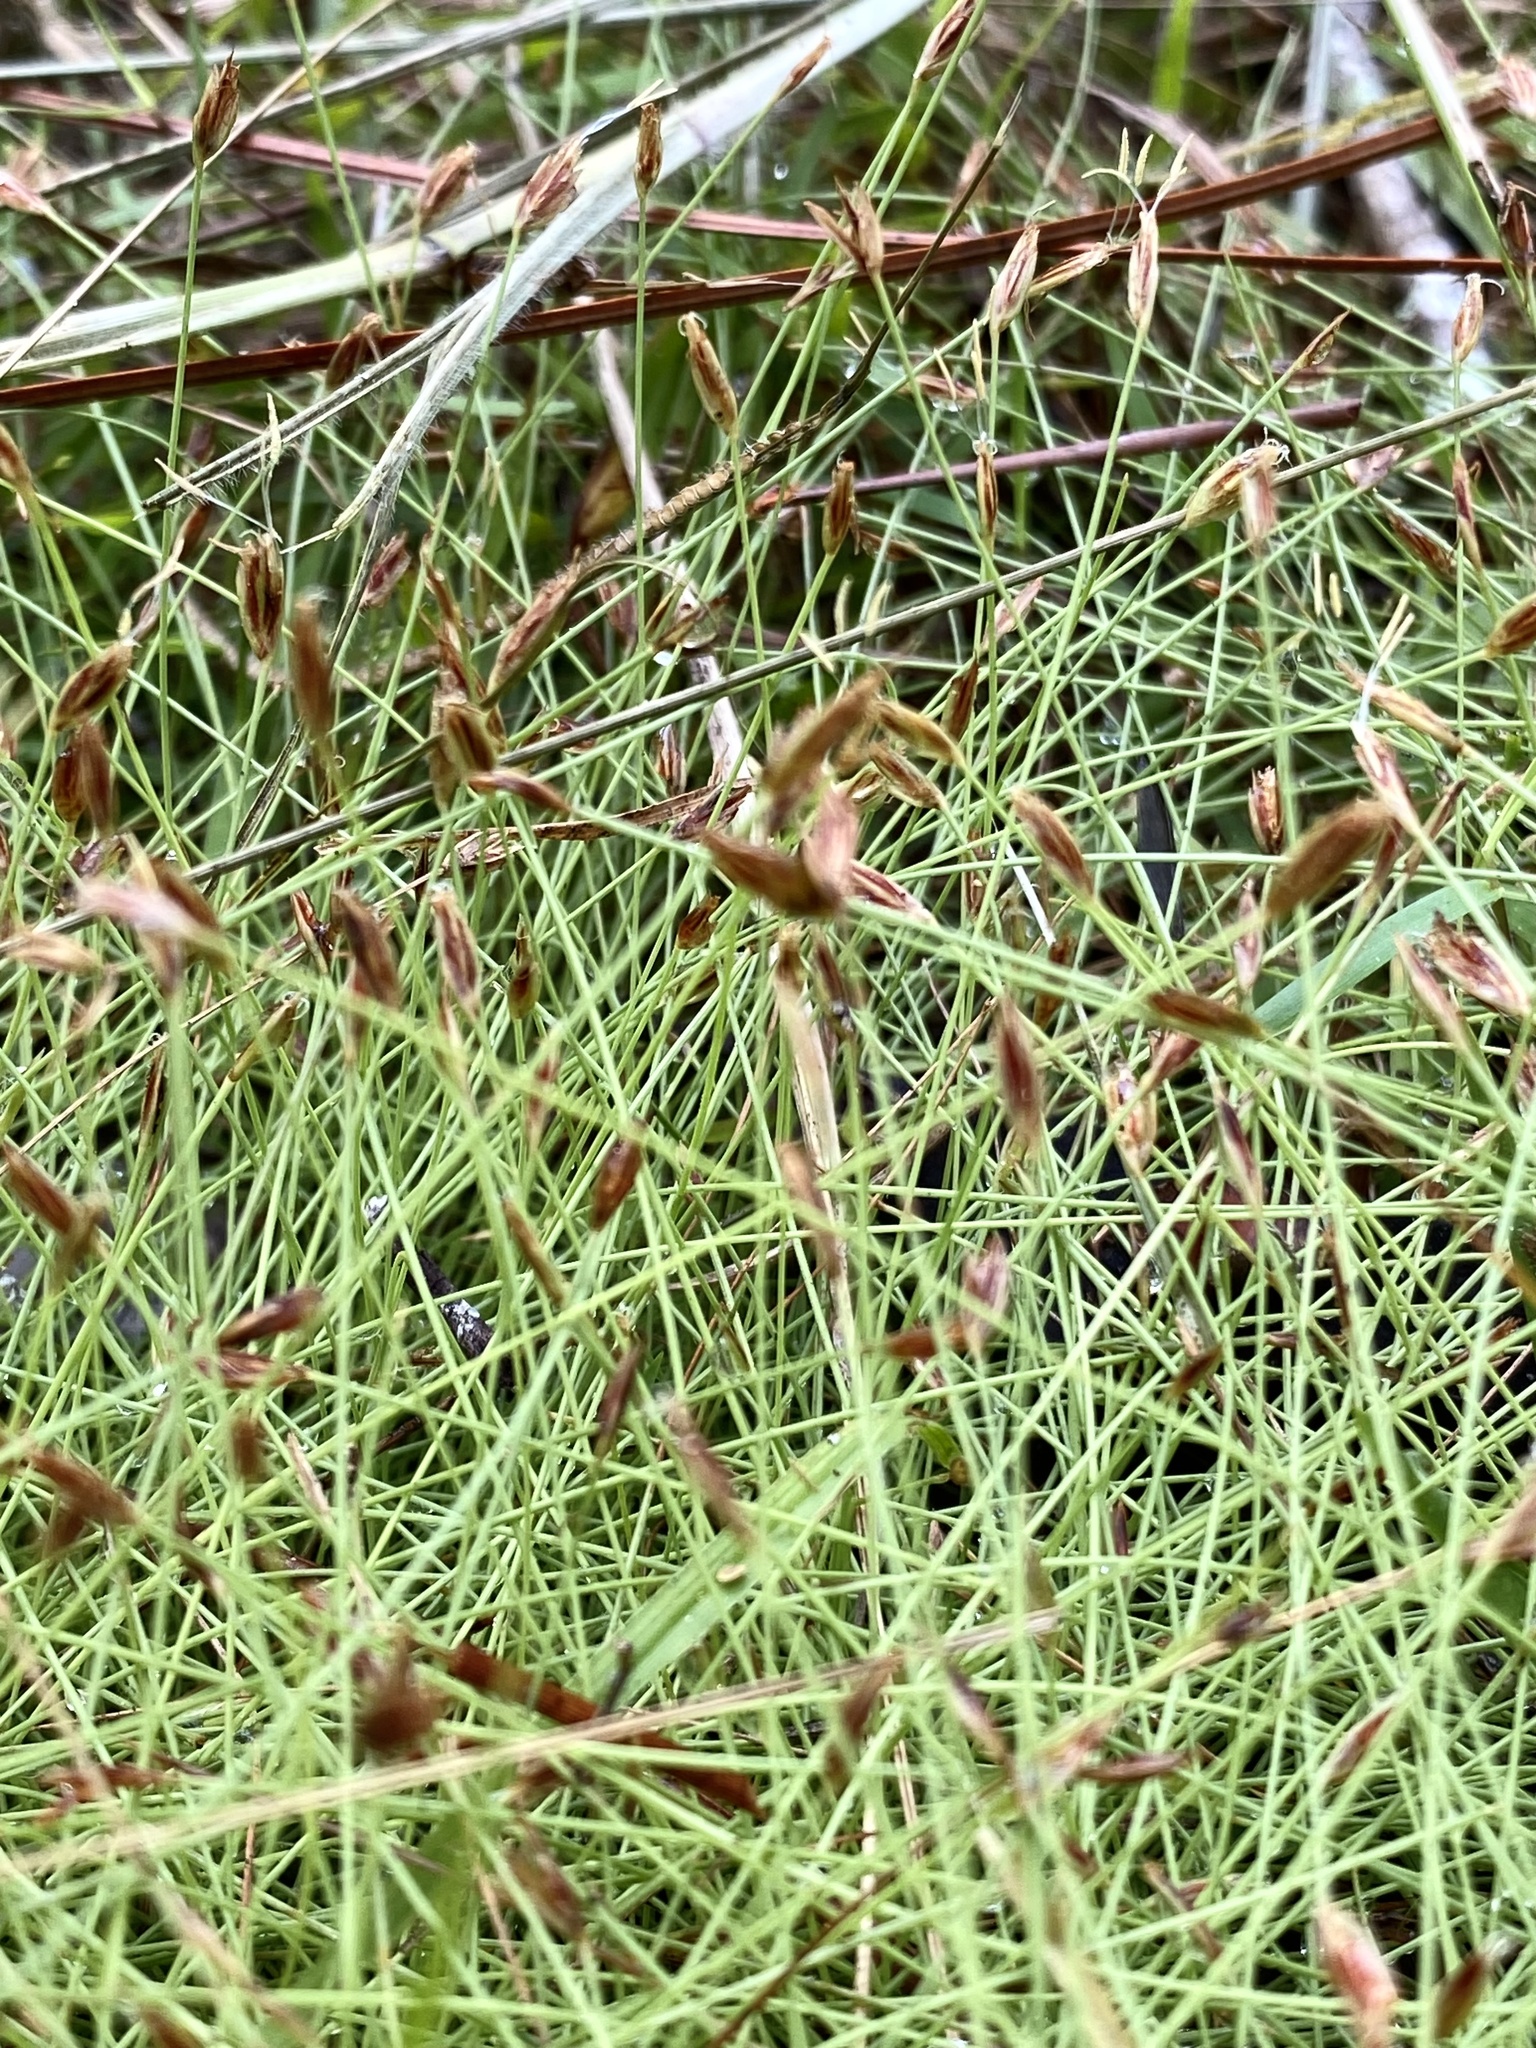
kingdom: Plantae
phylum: Tracheophyta
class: Liliopsida
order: Poales
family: Cyperaceae
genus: Eleocharis
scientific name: Eleocharis baldwinii
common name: Baldwin's spike-rush
